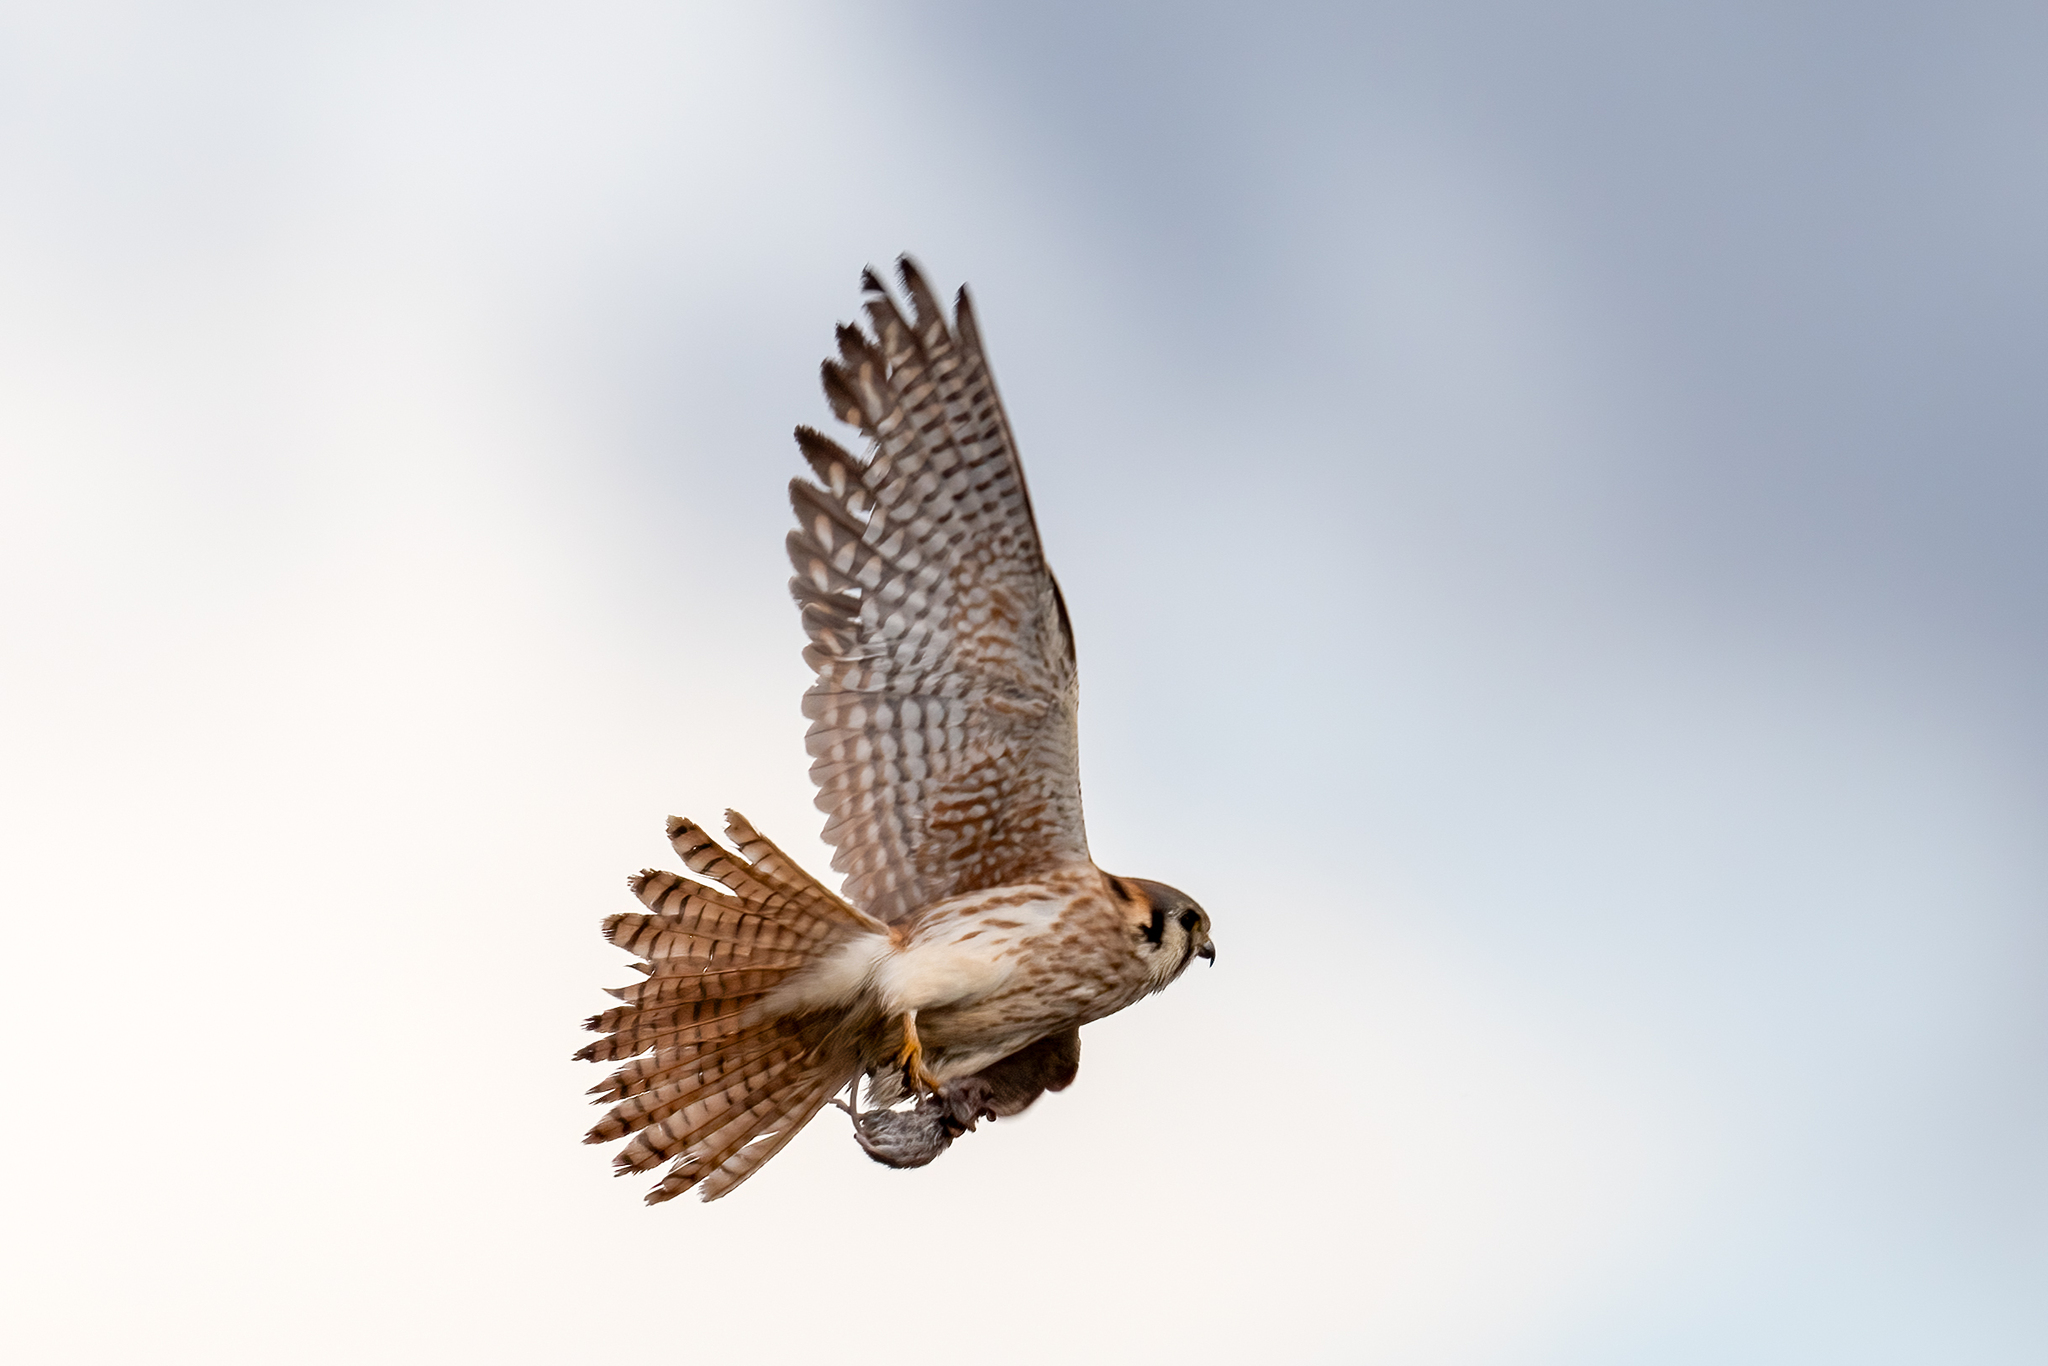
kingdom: Animalia
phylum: Chordata
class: Aves
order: Falconiformes
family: Falconidae
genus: Falco
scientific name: Falco sparverius
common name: American kestrel
